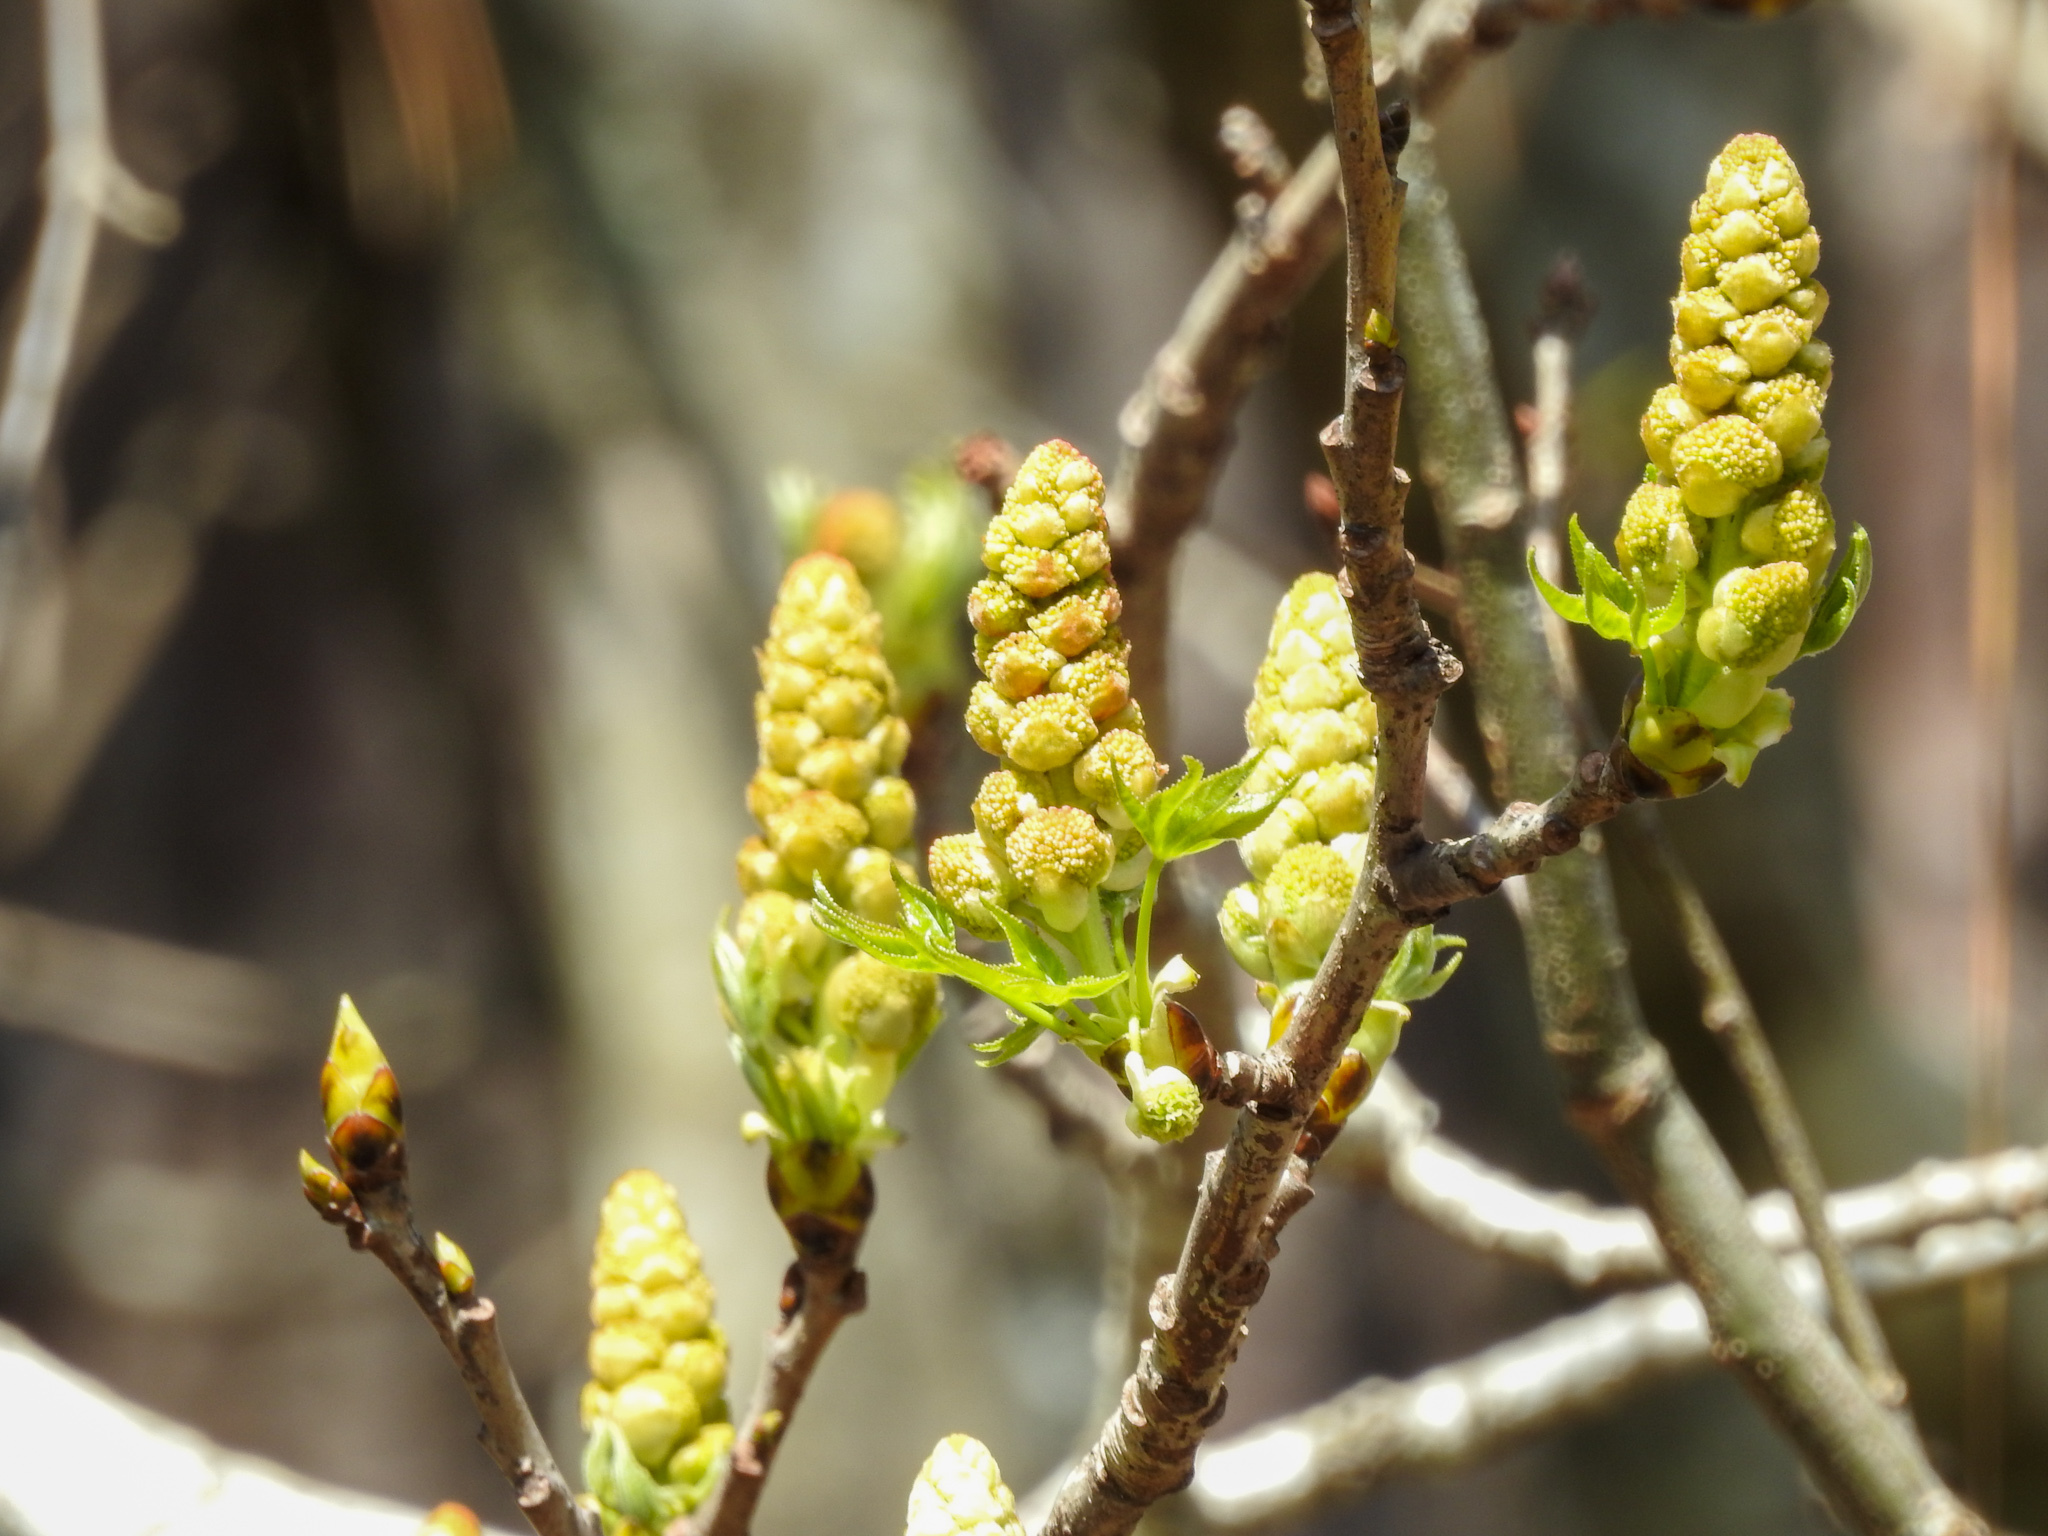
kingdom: Plantae
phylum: Tracheophyta
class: Magnoliopsida
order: Saxifragales
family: Altingiaceae
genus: Liquidambar
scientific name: Liquidambar styraciflua
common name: Sweet gum
